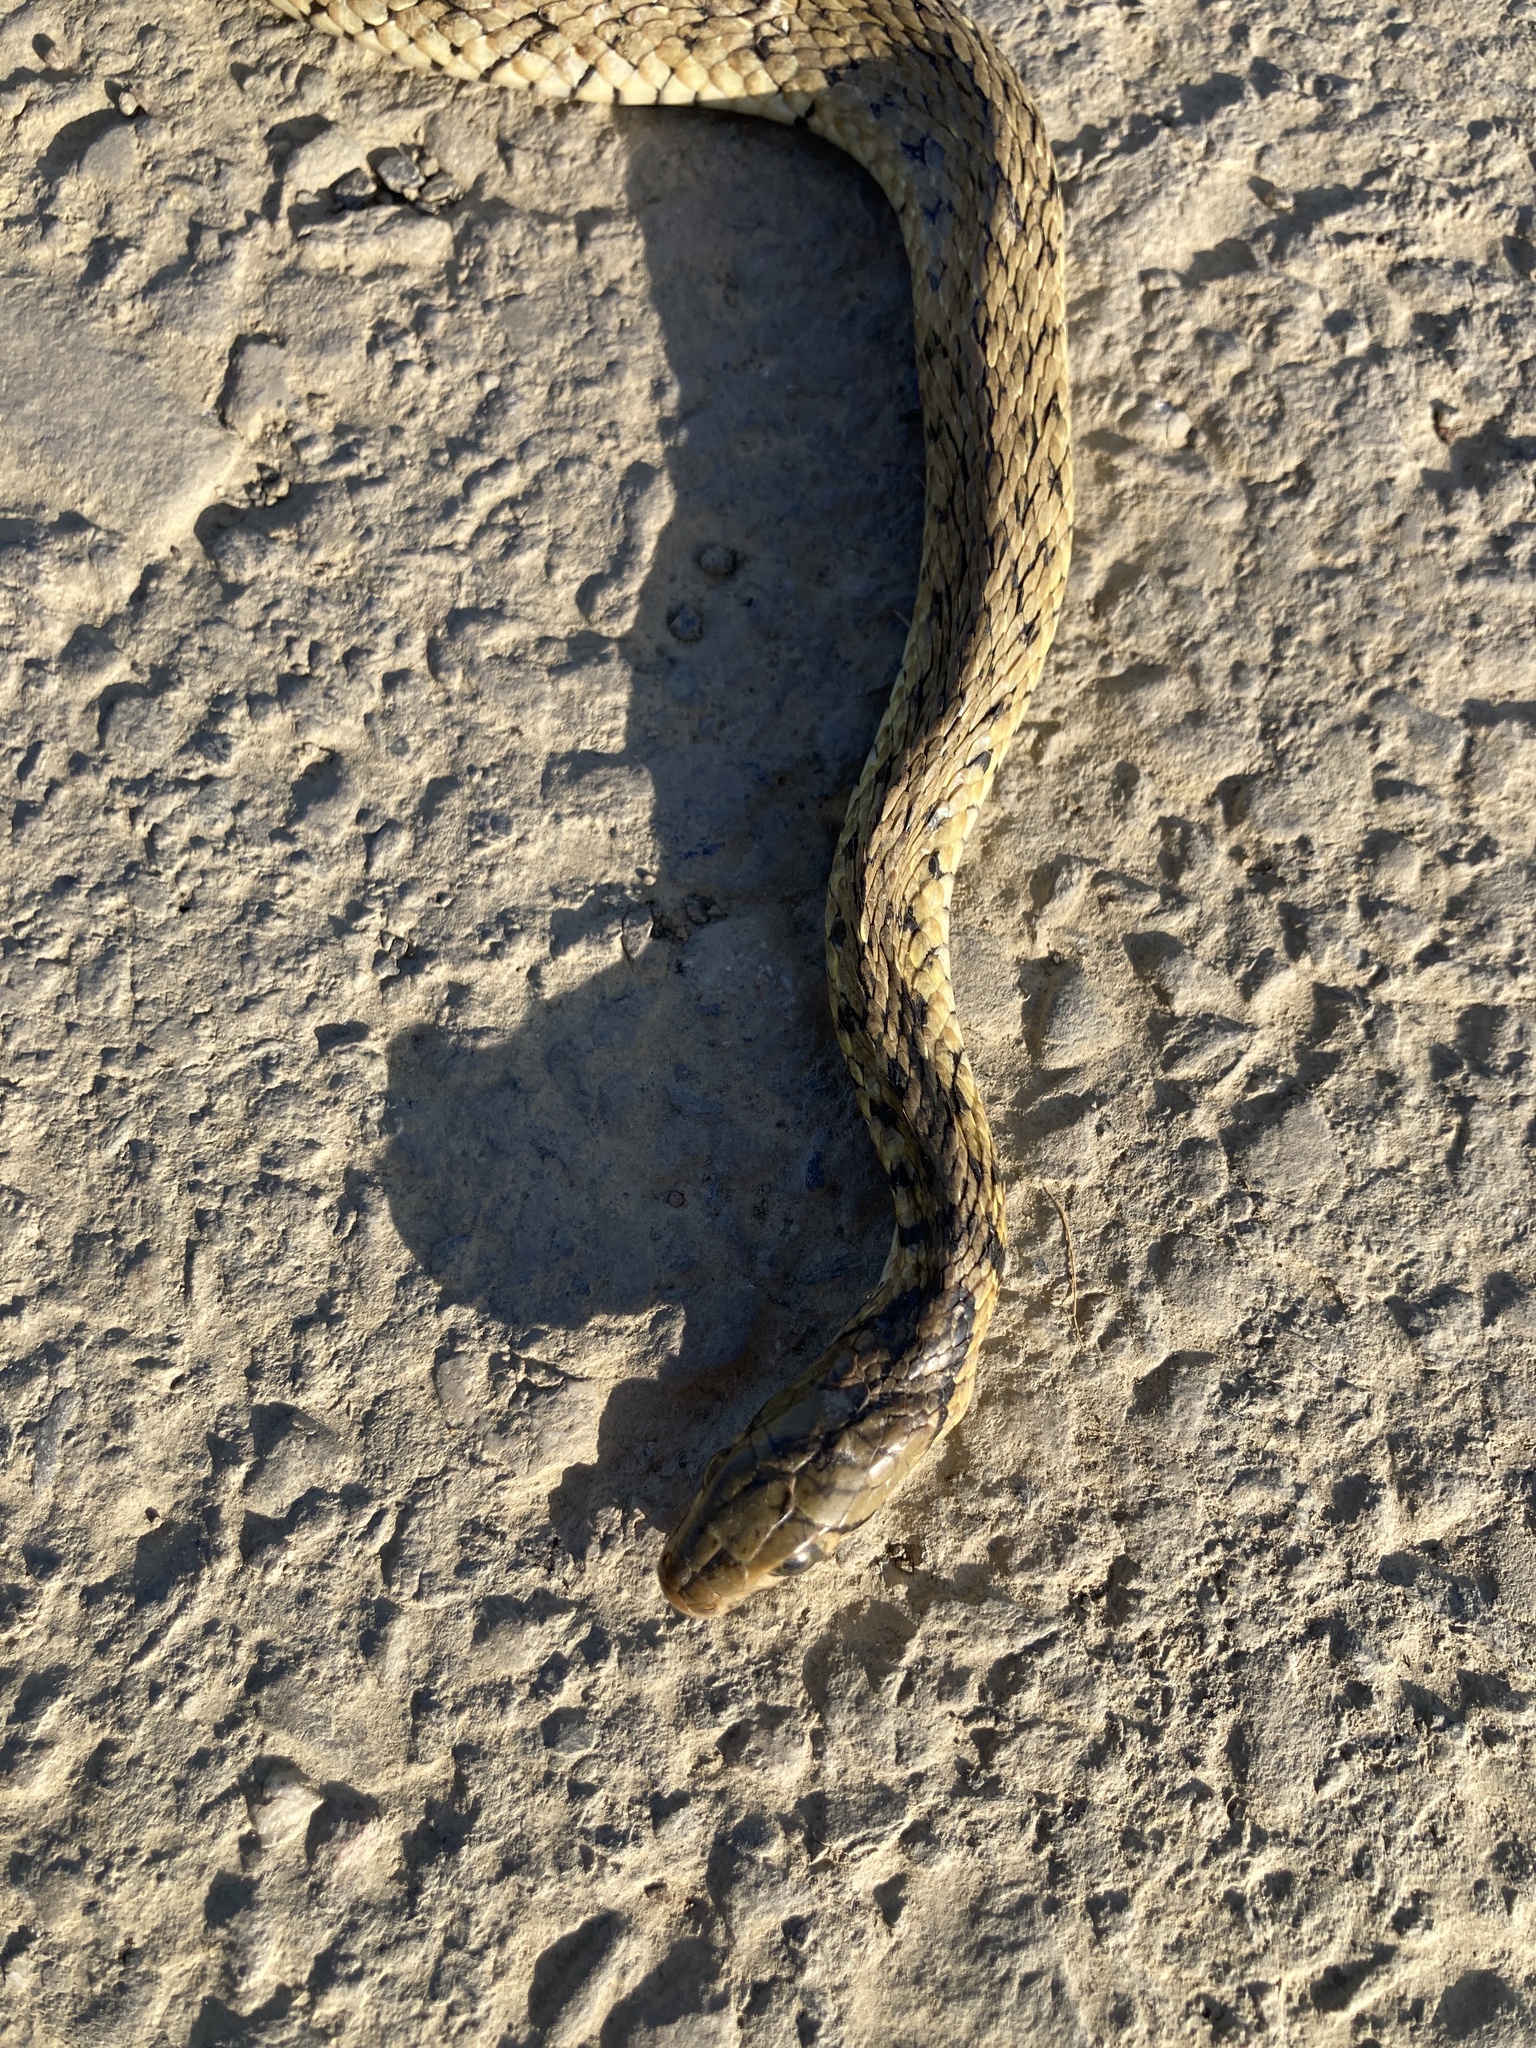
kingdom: Animalia
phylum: Chordata
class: Squamata
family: Colubridae
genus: Fowlea
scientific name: Fowlea flavipunctatus
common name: Yellow-spotted keelback
